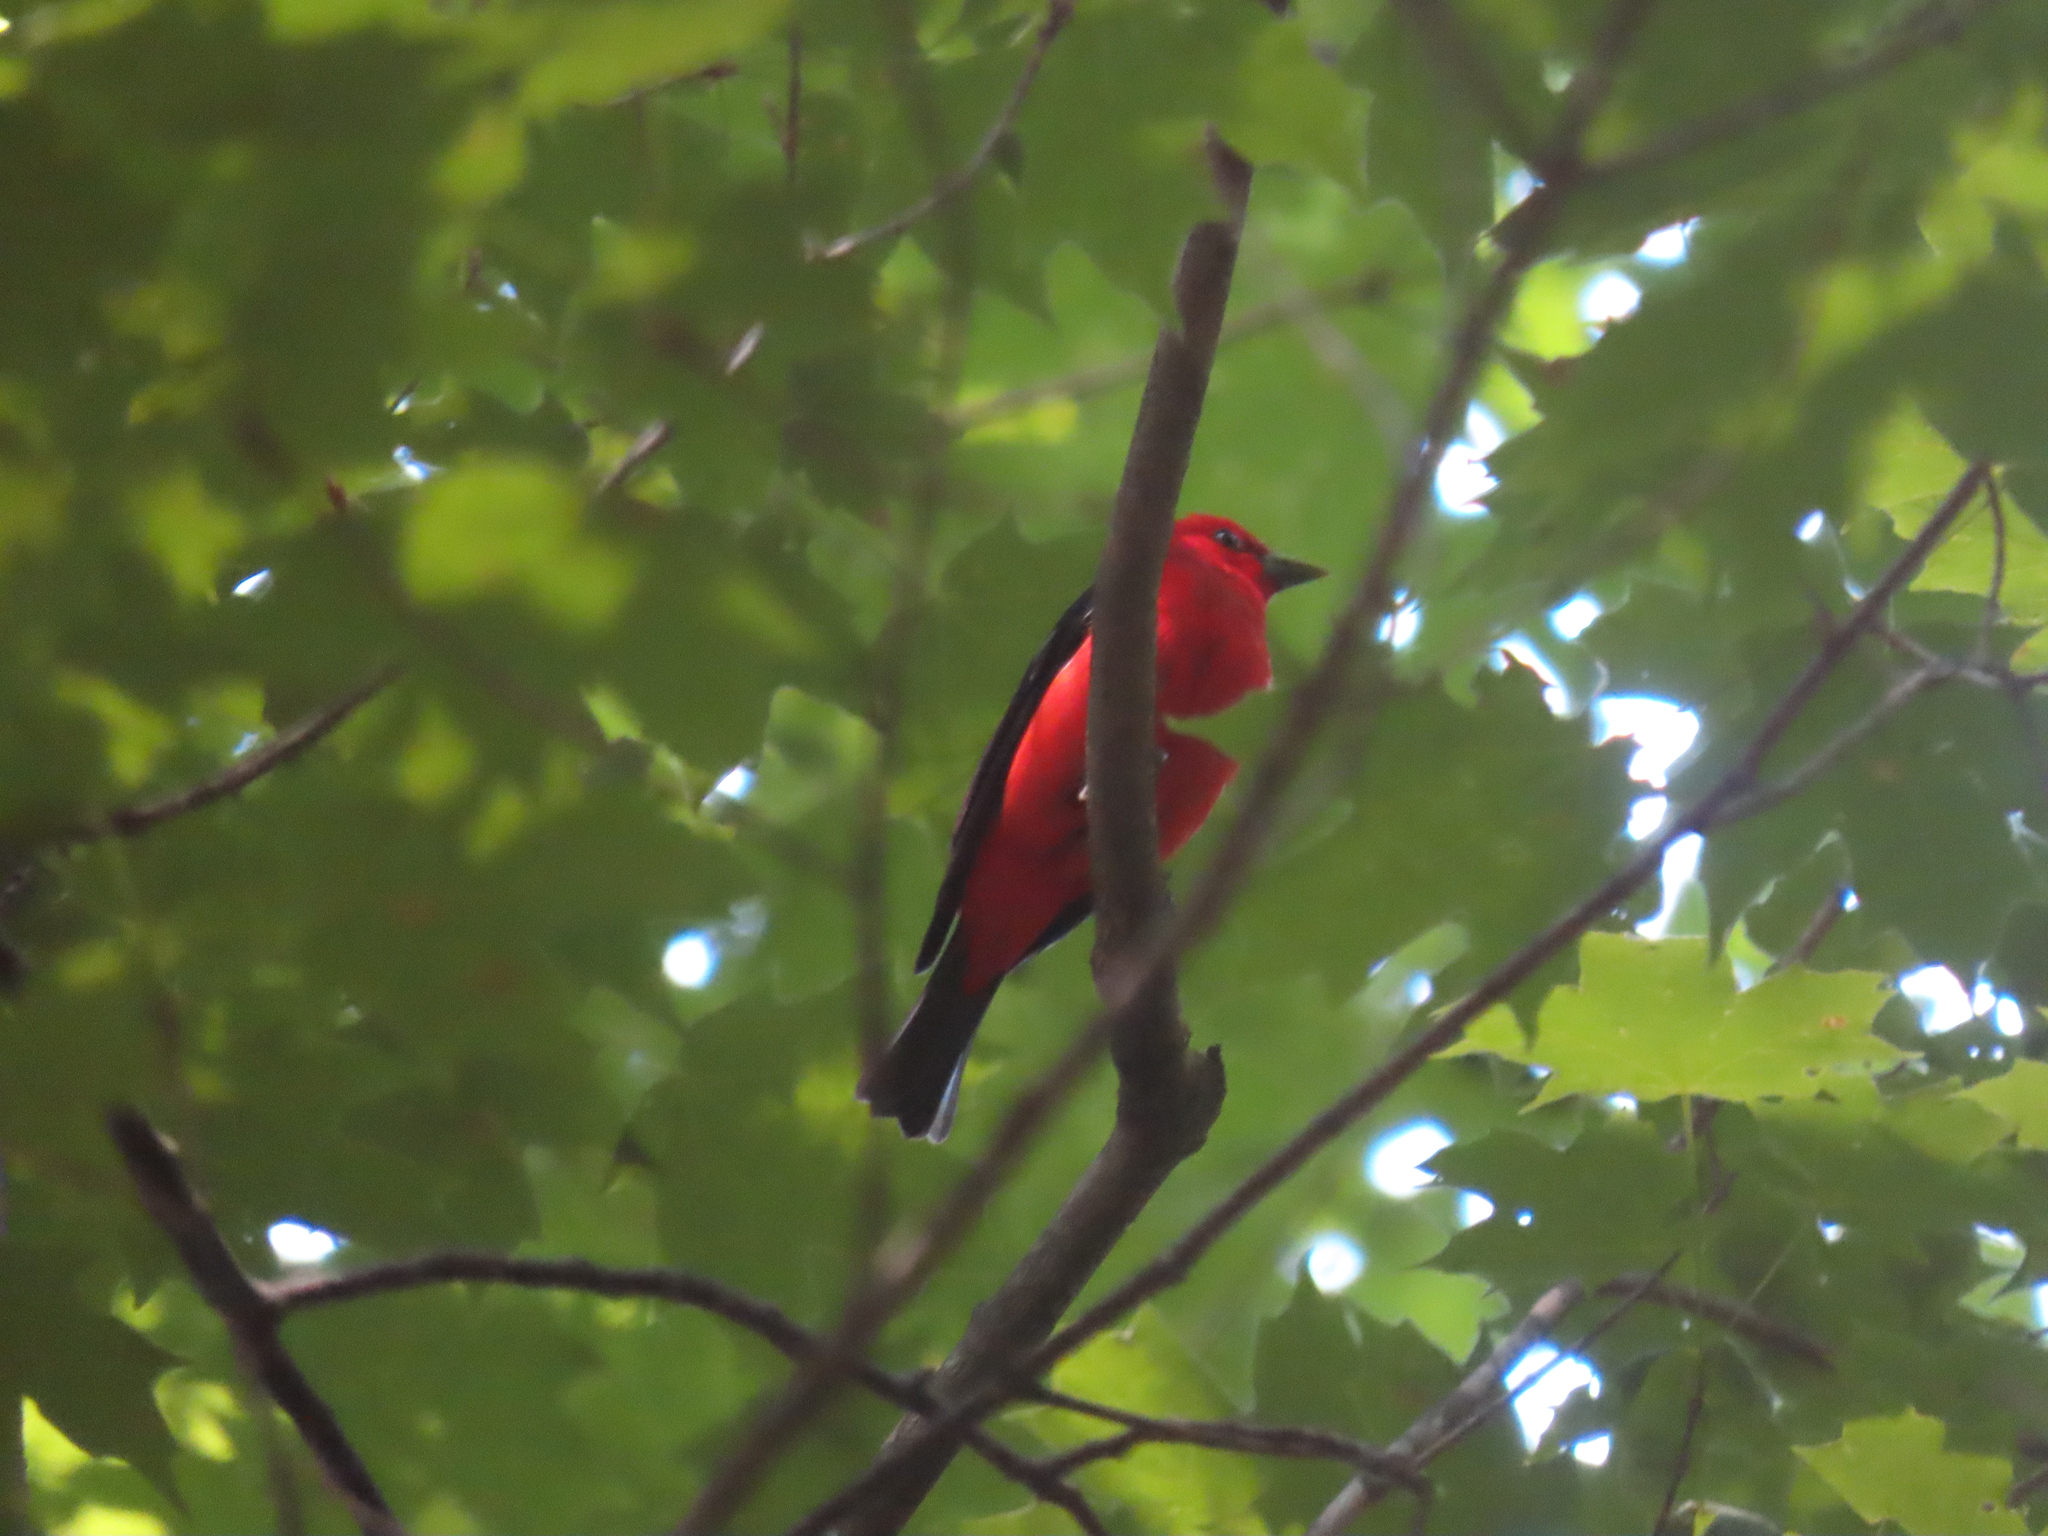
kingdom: Animalia
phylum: Chordata
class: Aves
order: Passeriformes
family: Cardinalidae
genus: Piranga
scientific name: Piranga olivacea
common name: Scarlet tanager
